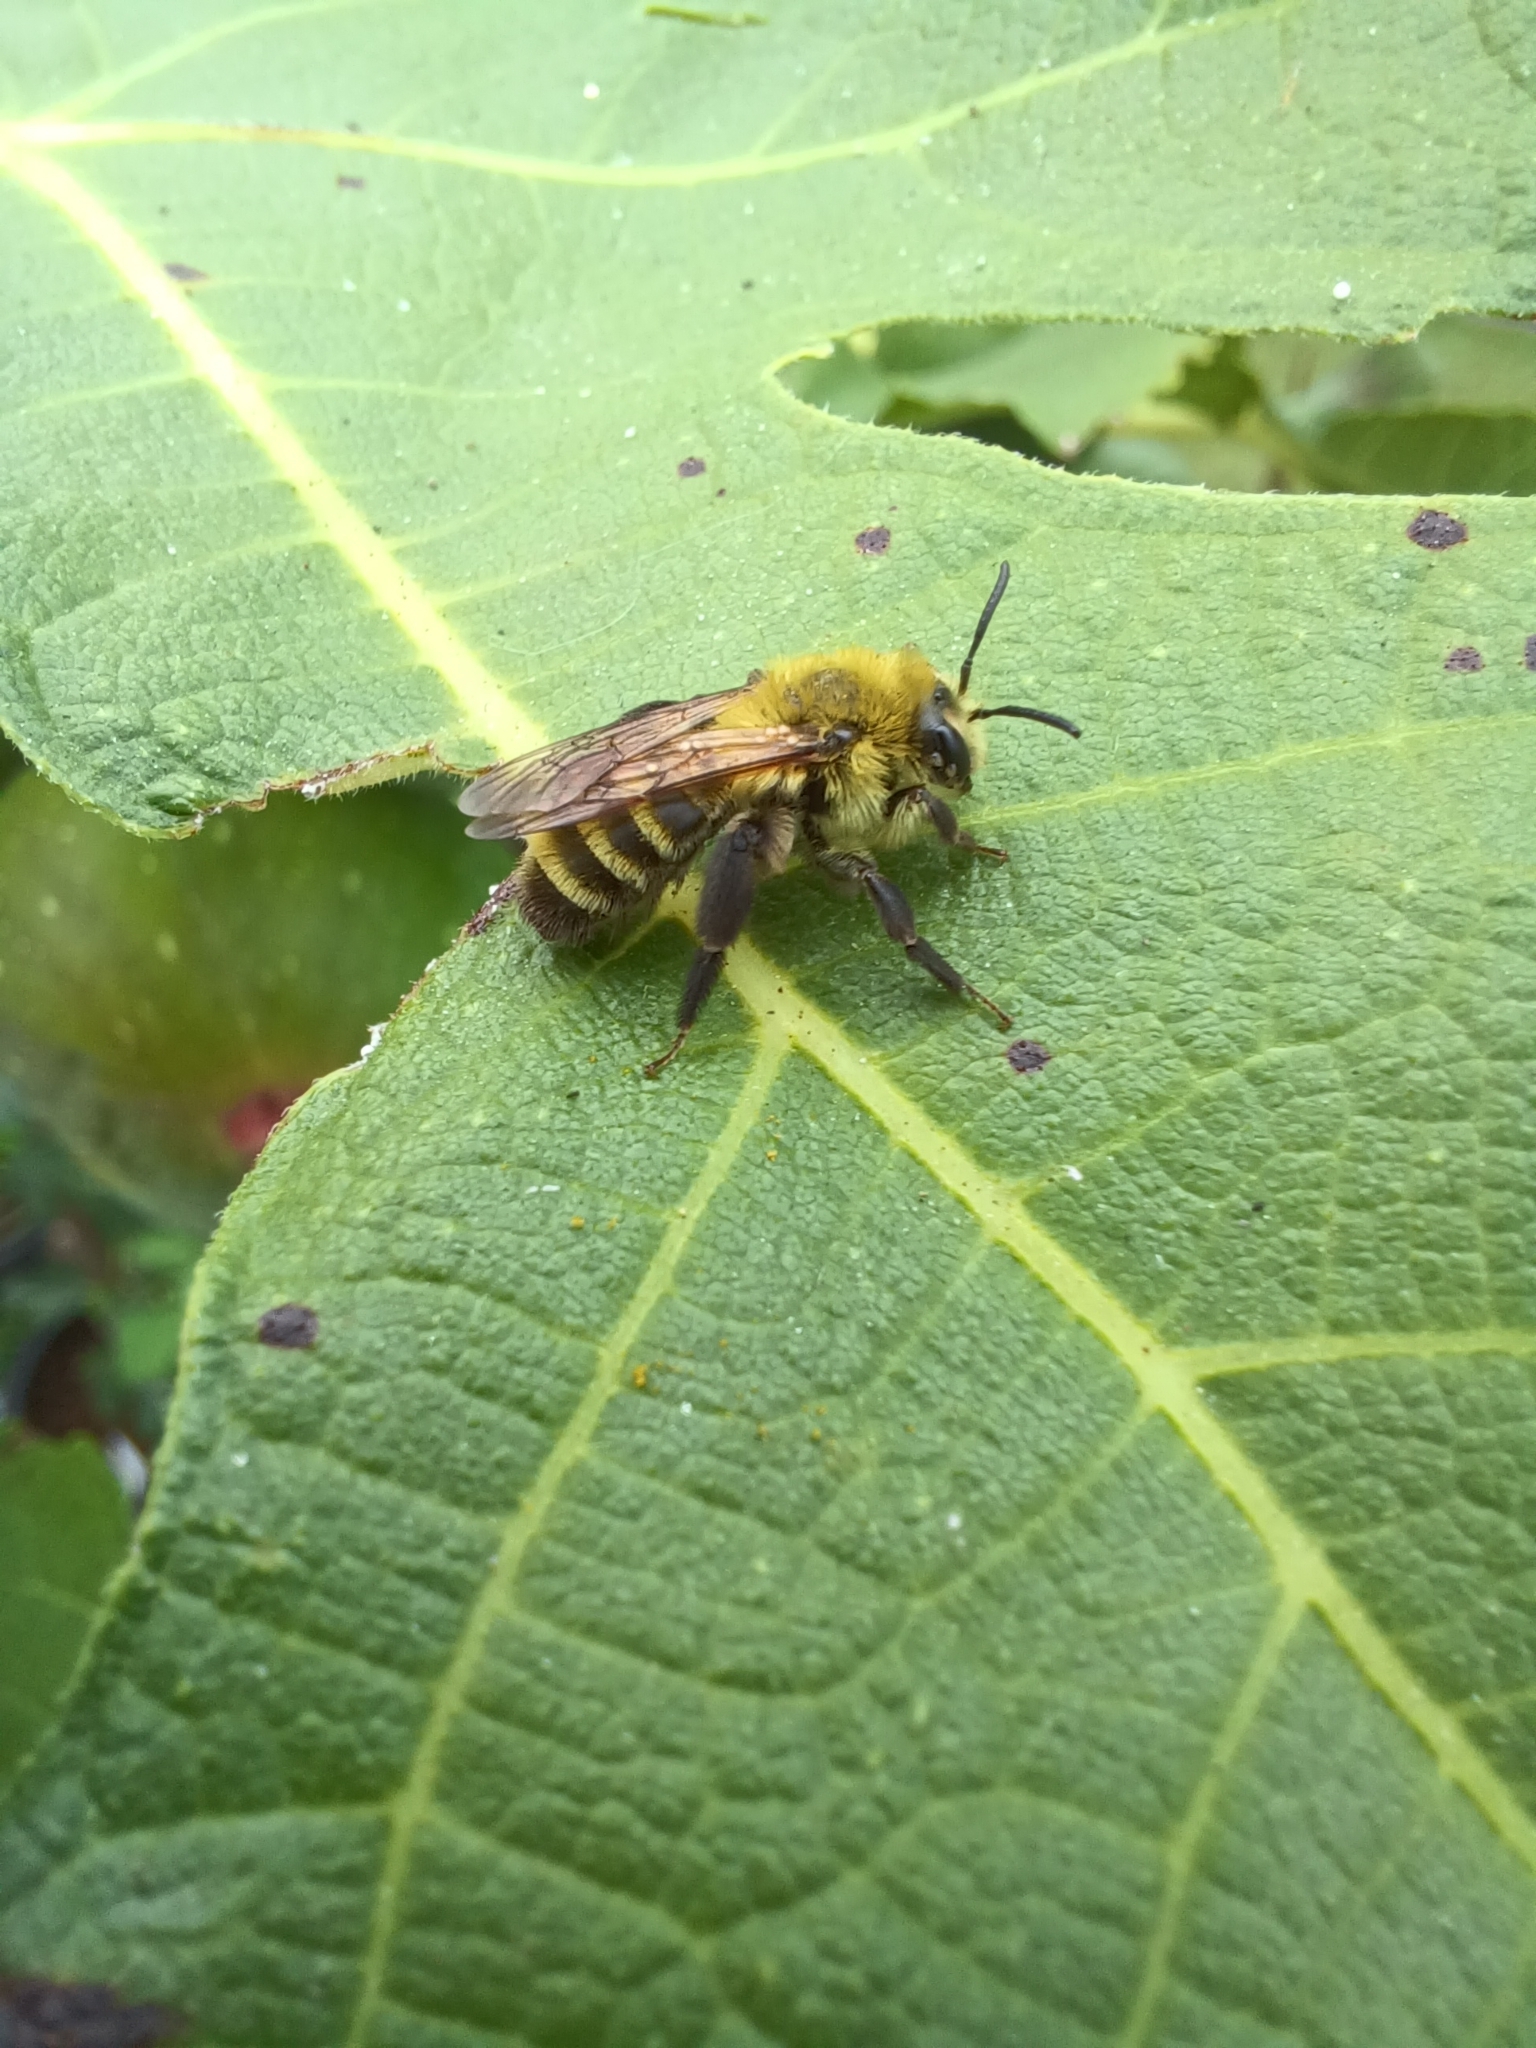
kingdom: Animalia
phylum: Arthropoda
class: Insecta
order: Hymenoptera
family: Andrenidae
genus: Andrena
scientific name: Andrena hirticincta
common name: Hairy-banded mining bee
